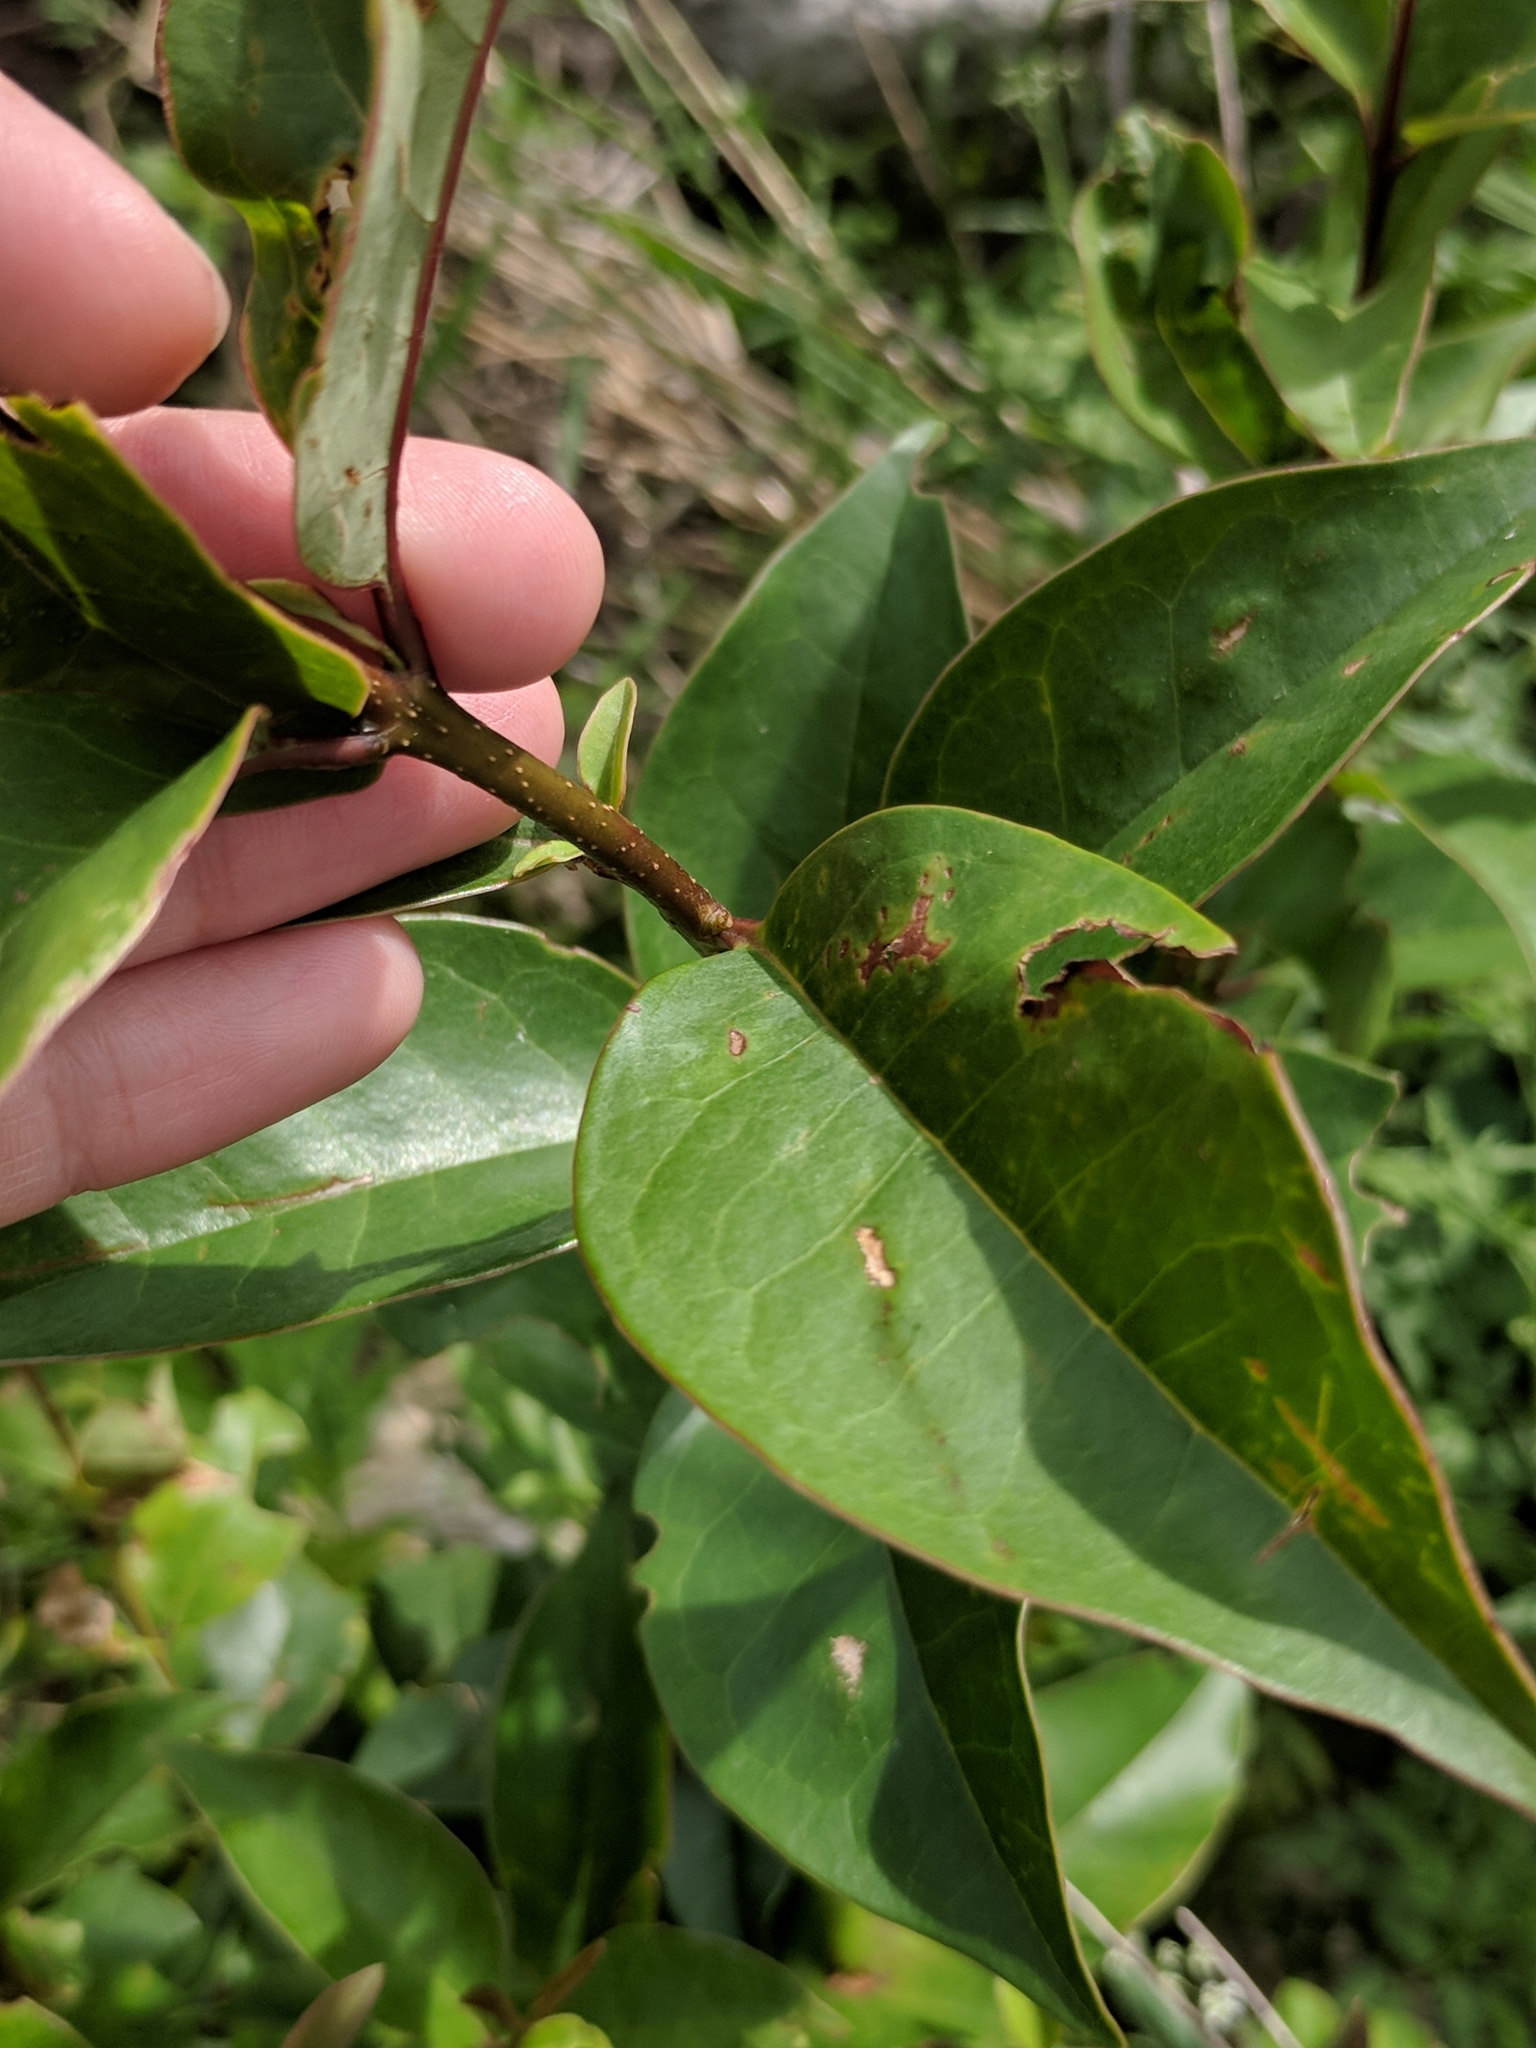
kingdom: Plantae
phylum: Tracheophyta
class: Magnoliopsida
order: Lamiales
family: Oleaceae
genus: Ligustrum
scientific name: Ligustrum lucidum
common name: Glossy privet
